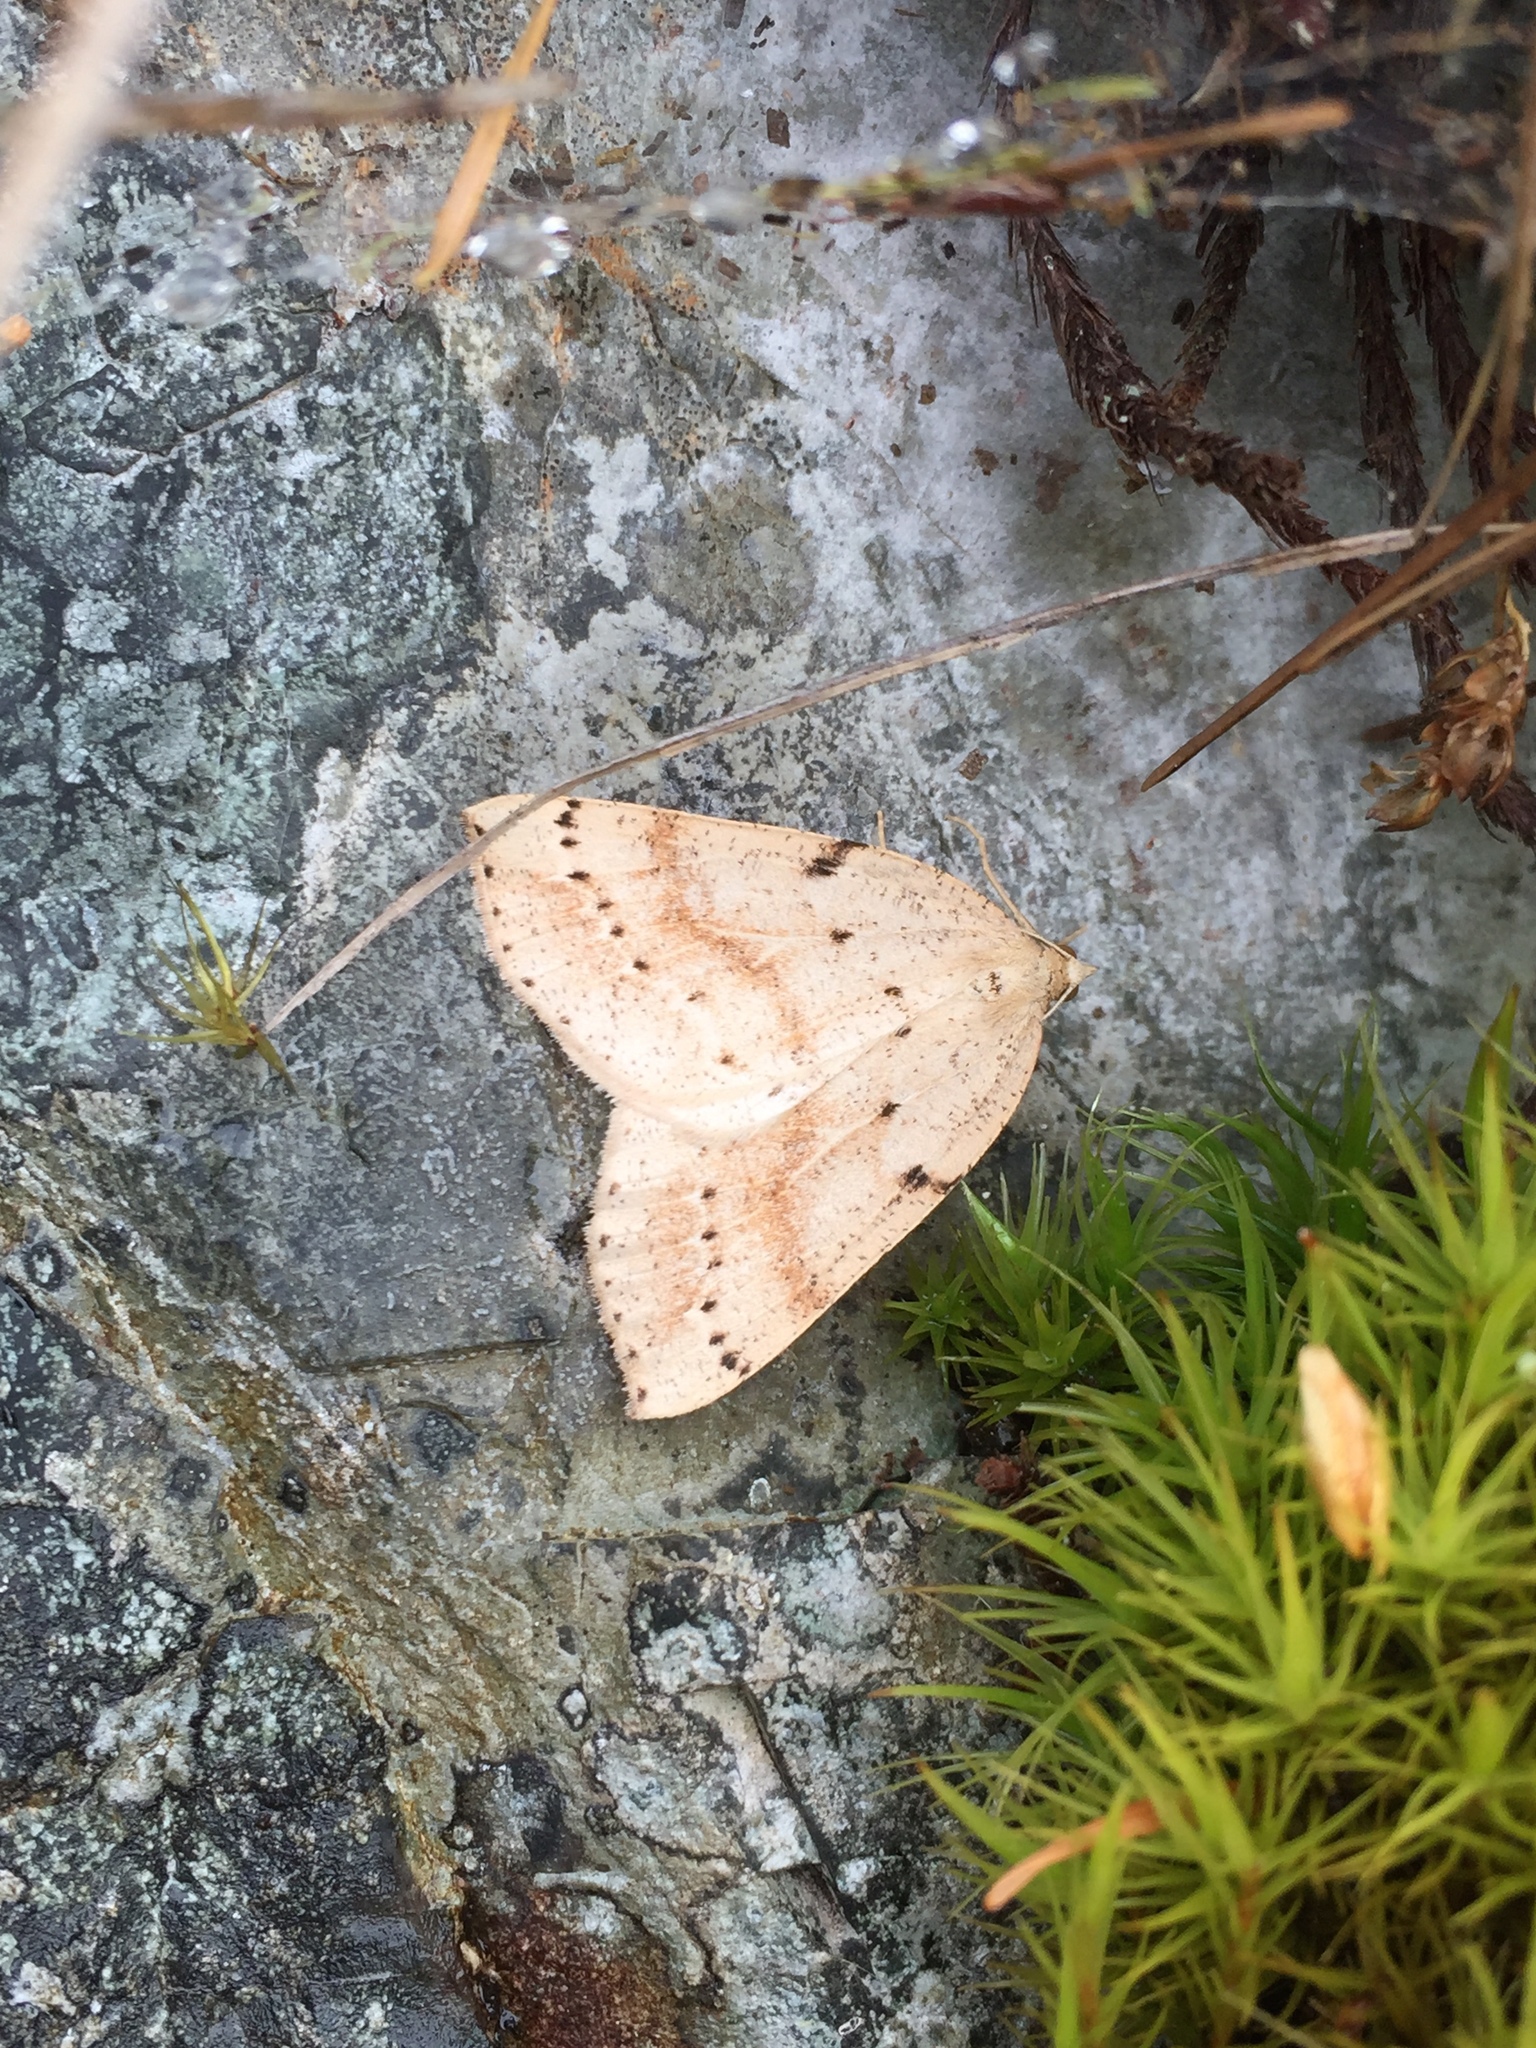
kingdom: Animalia
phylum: Arthropoda
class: Insecta
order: Lepidoptera
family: Geometridae
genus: Thallophaga
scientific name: Thallophaga hyperborea
